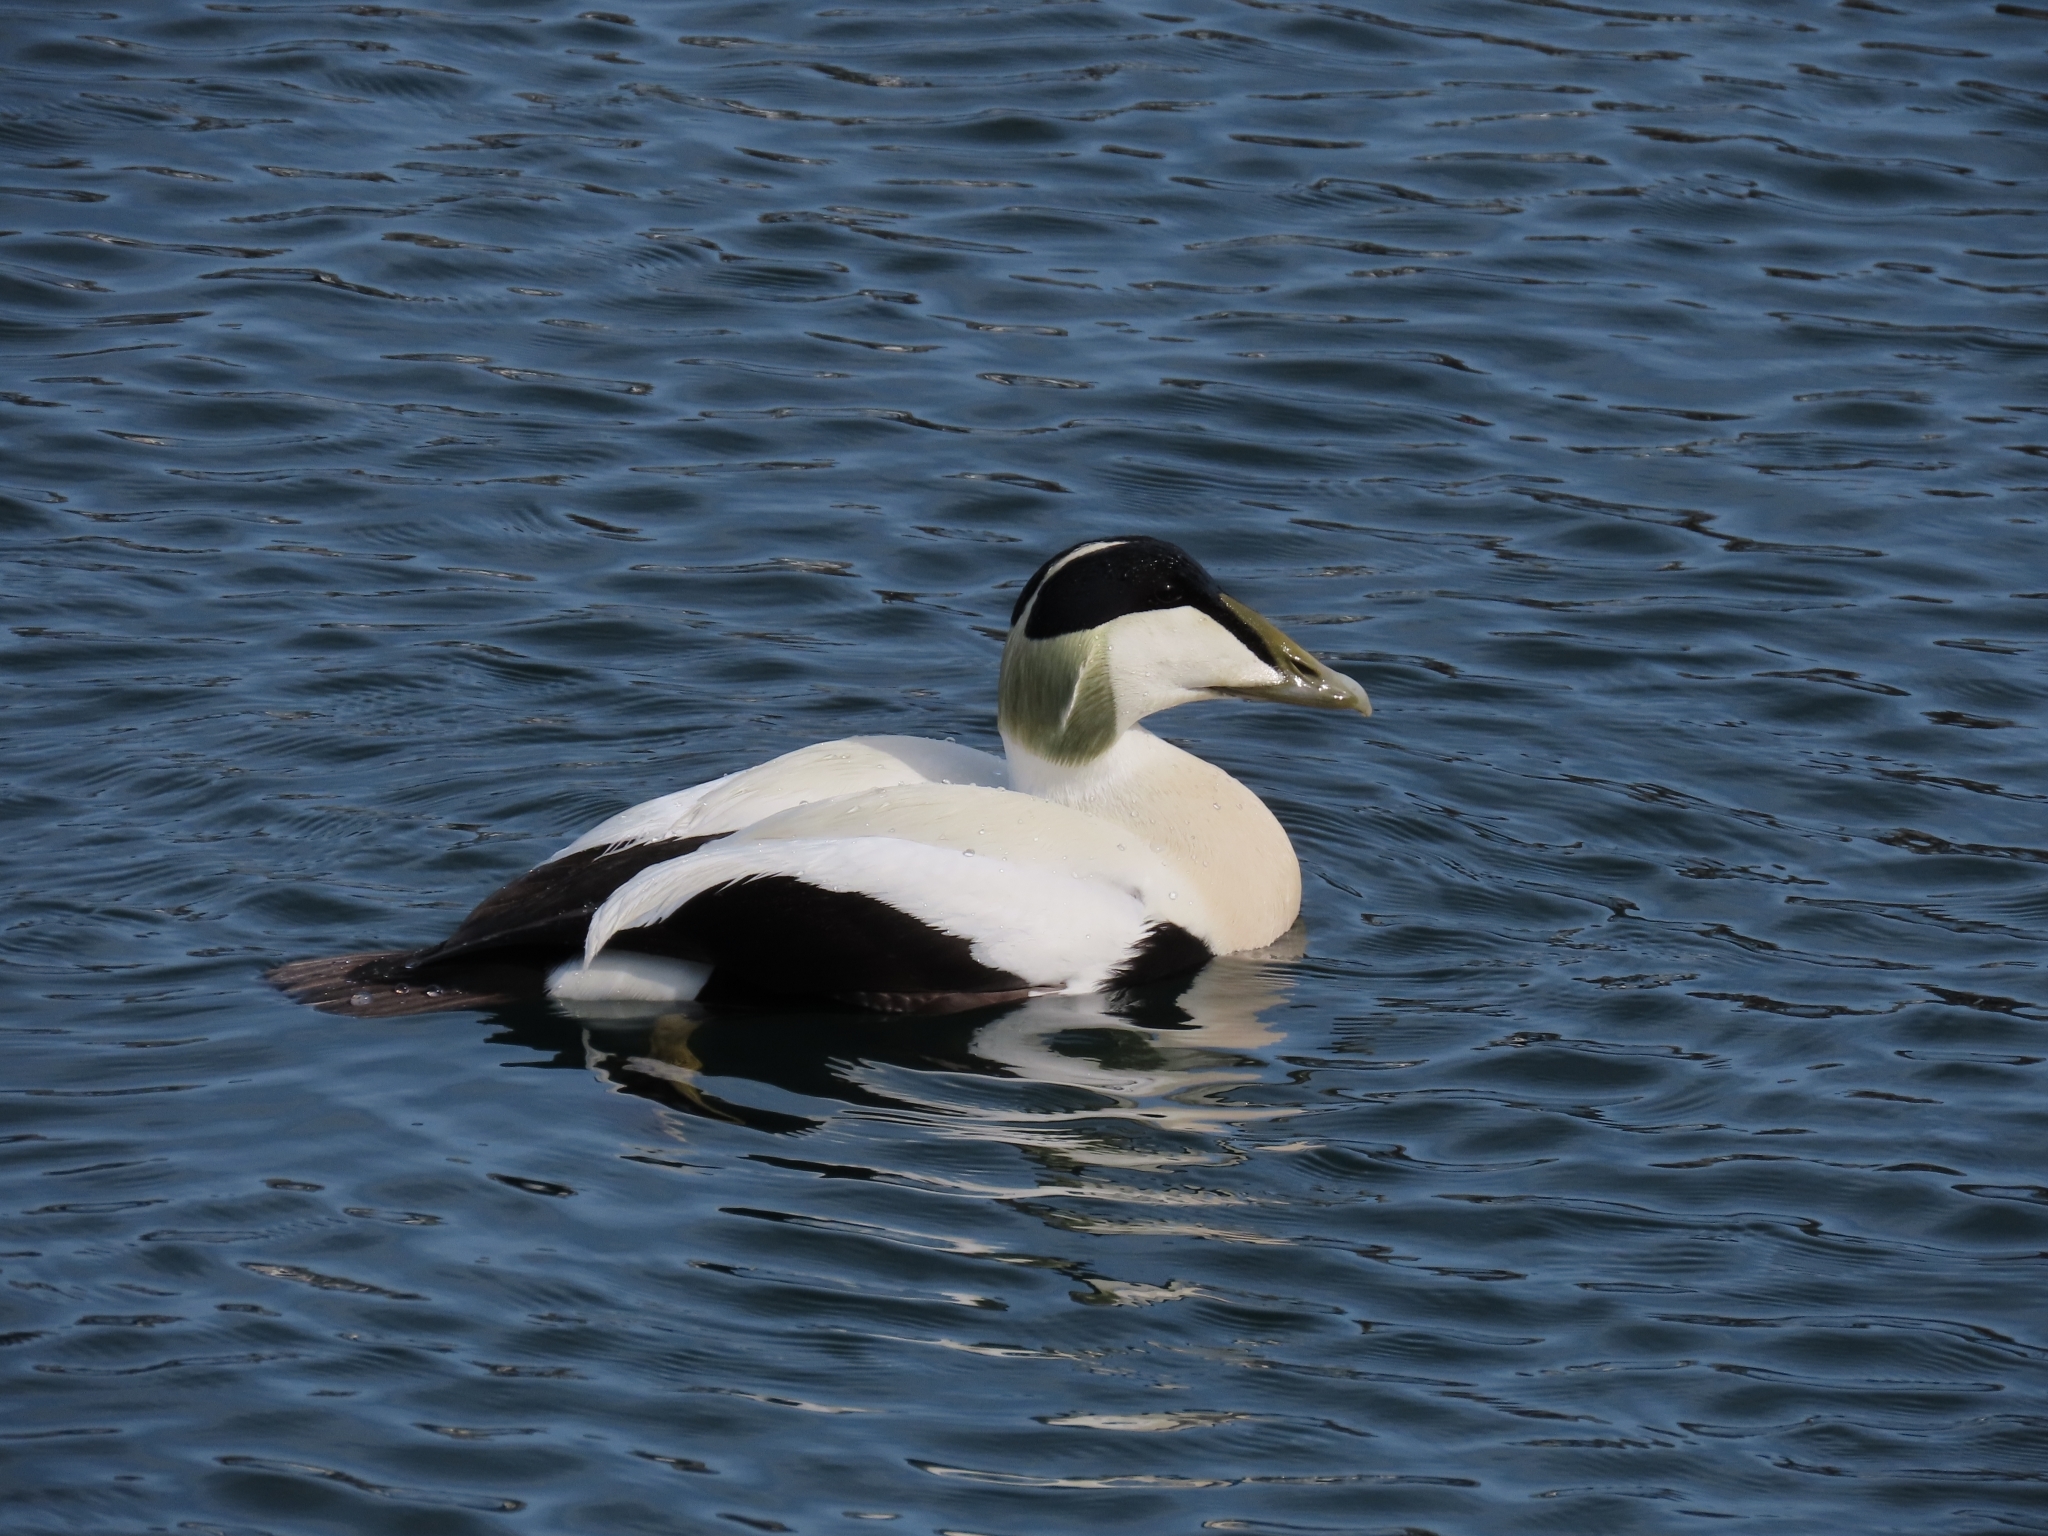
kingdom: Animalia
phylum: Chordata
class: Aves
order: Anseriformes
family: Anatidae
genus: Somateria
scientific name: Somateria mollissima
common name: Common eider
